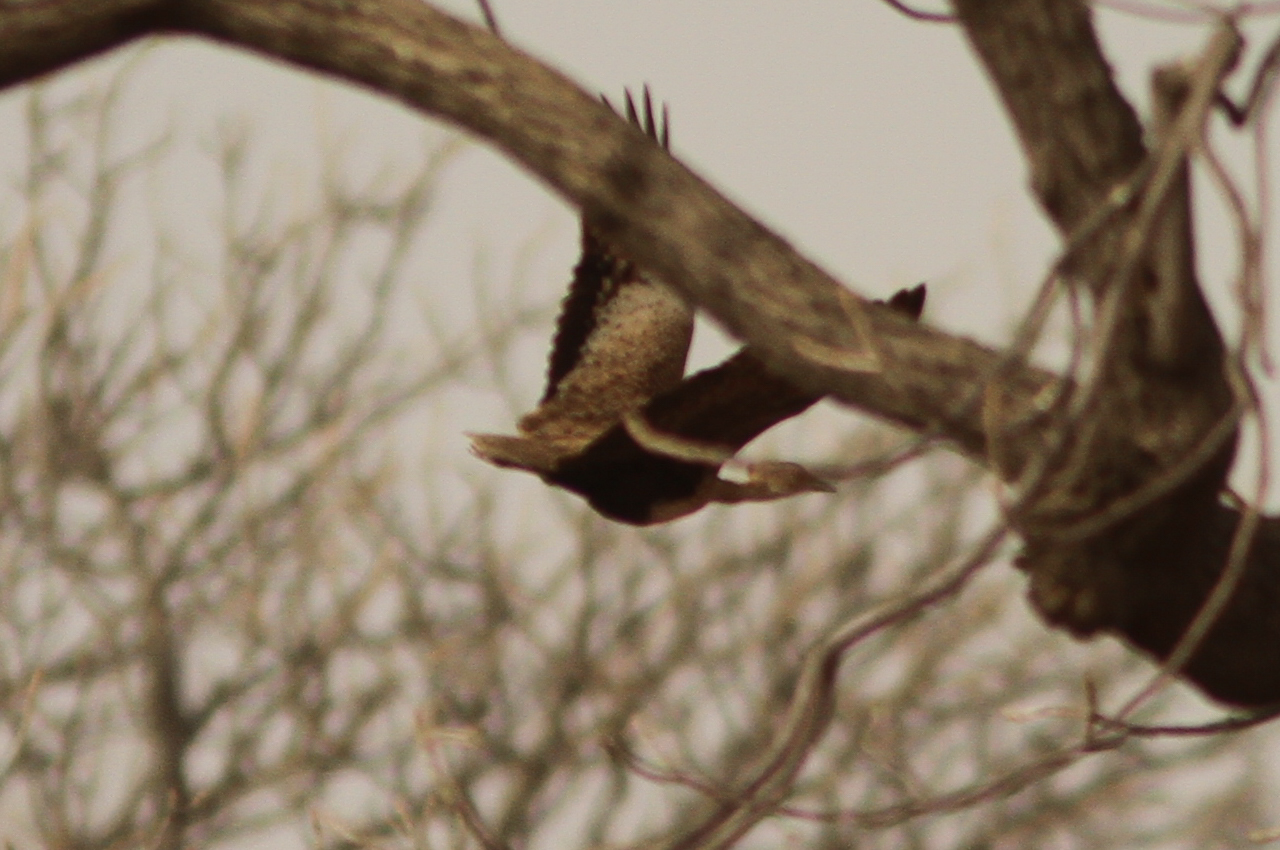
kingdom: Animalia
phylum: Chordata
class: Aves
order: Otidiformes
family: Otididae
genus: Lophotis
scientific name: Lophotis savilei
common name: Savile's bustard
